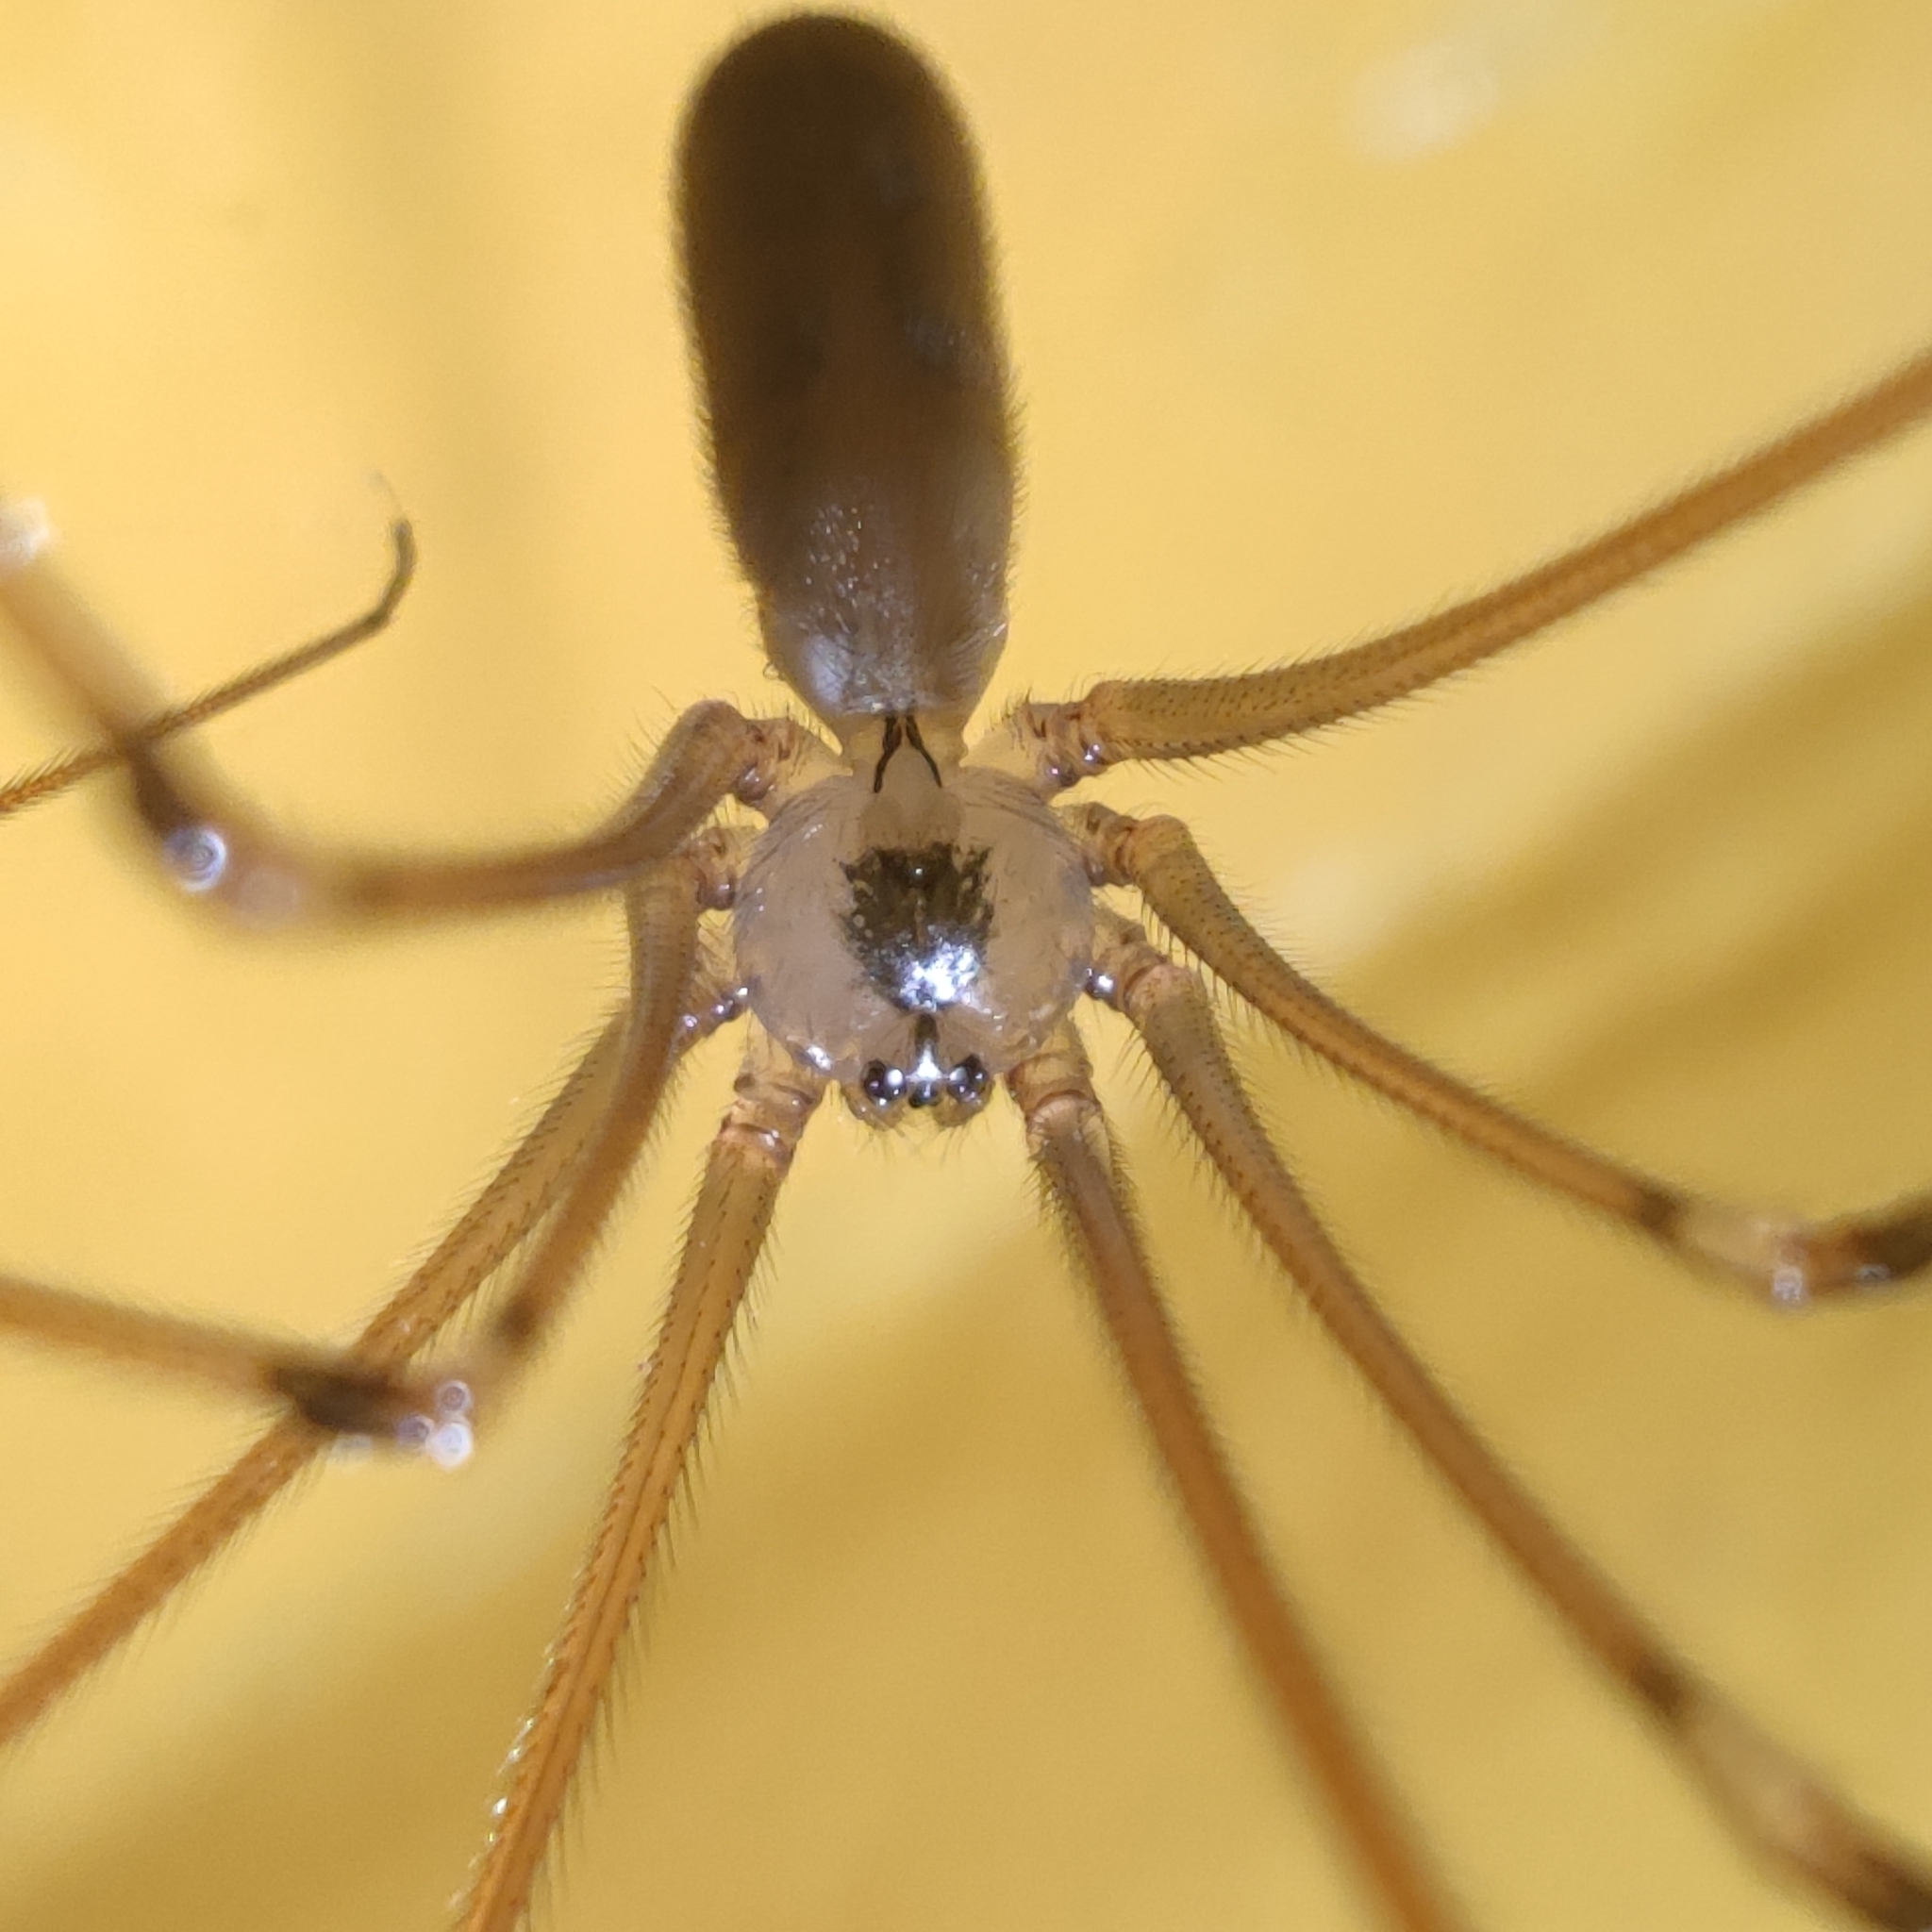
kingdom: Animalia
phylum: Arthropoda
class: Arachnida
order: Araneae
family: Pholcidae
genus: Pholcus
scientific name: Pholcus phalangioides
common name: Longbodied cellar spider
